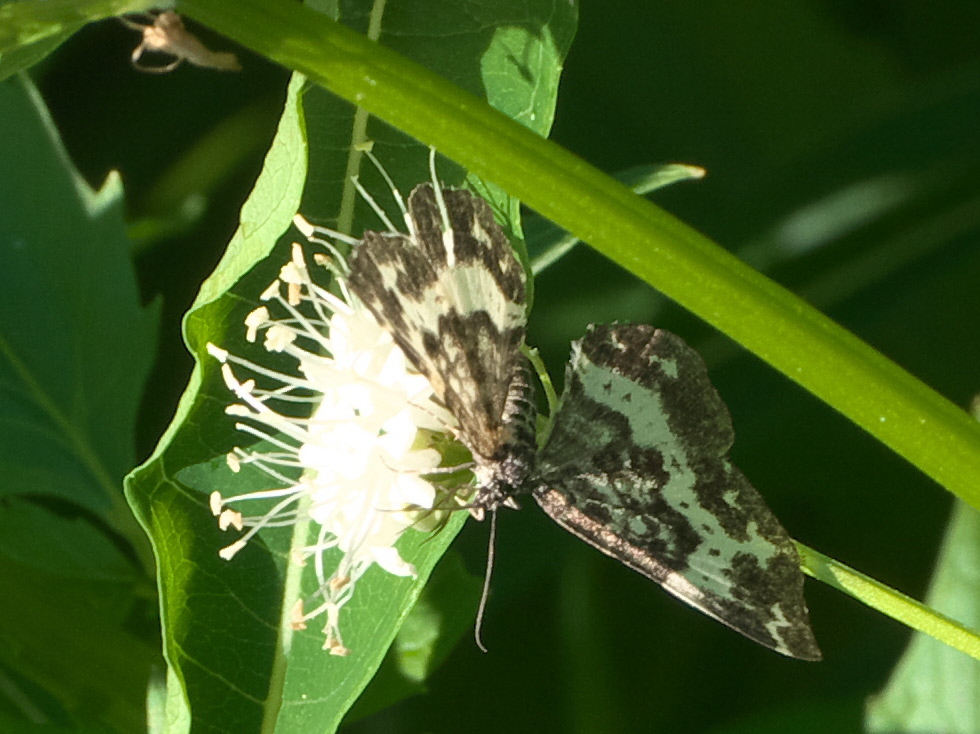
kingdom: Animalia
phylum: Arthropoda
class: Insecta
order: Lepidoptera
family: Geometridae
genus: Rheumaptera
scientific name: Rheumaptera
